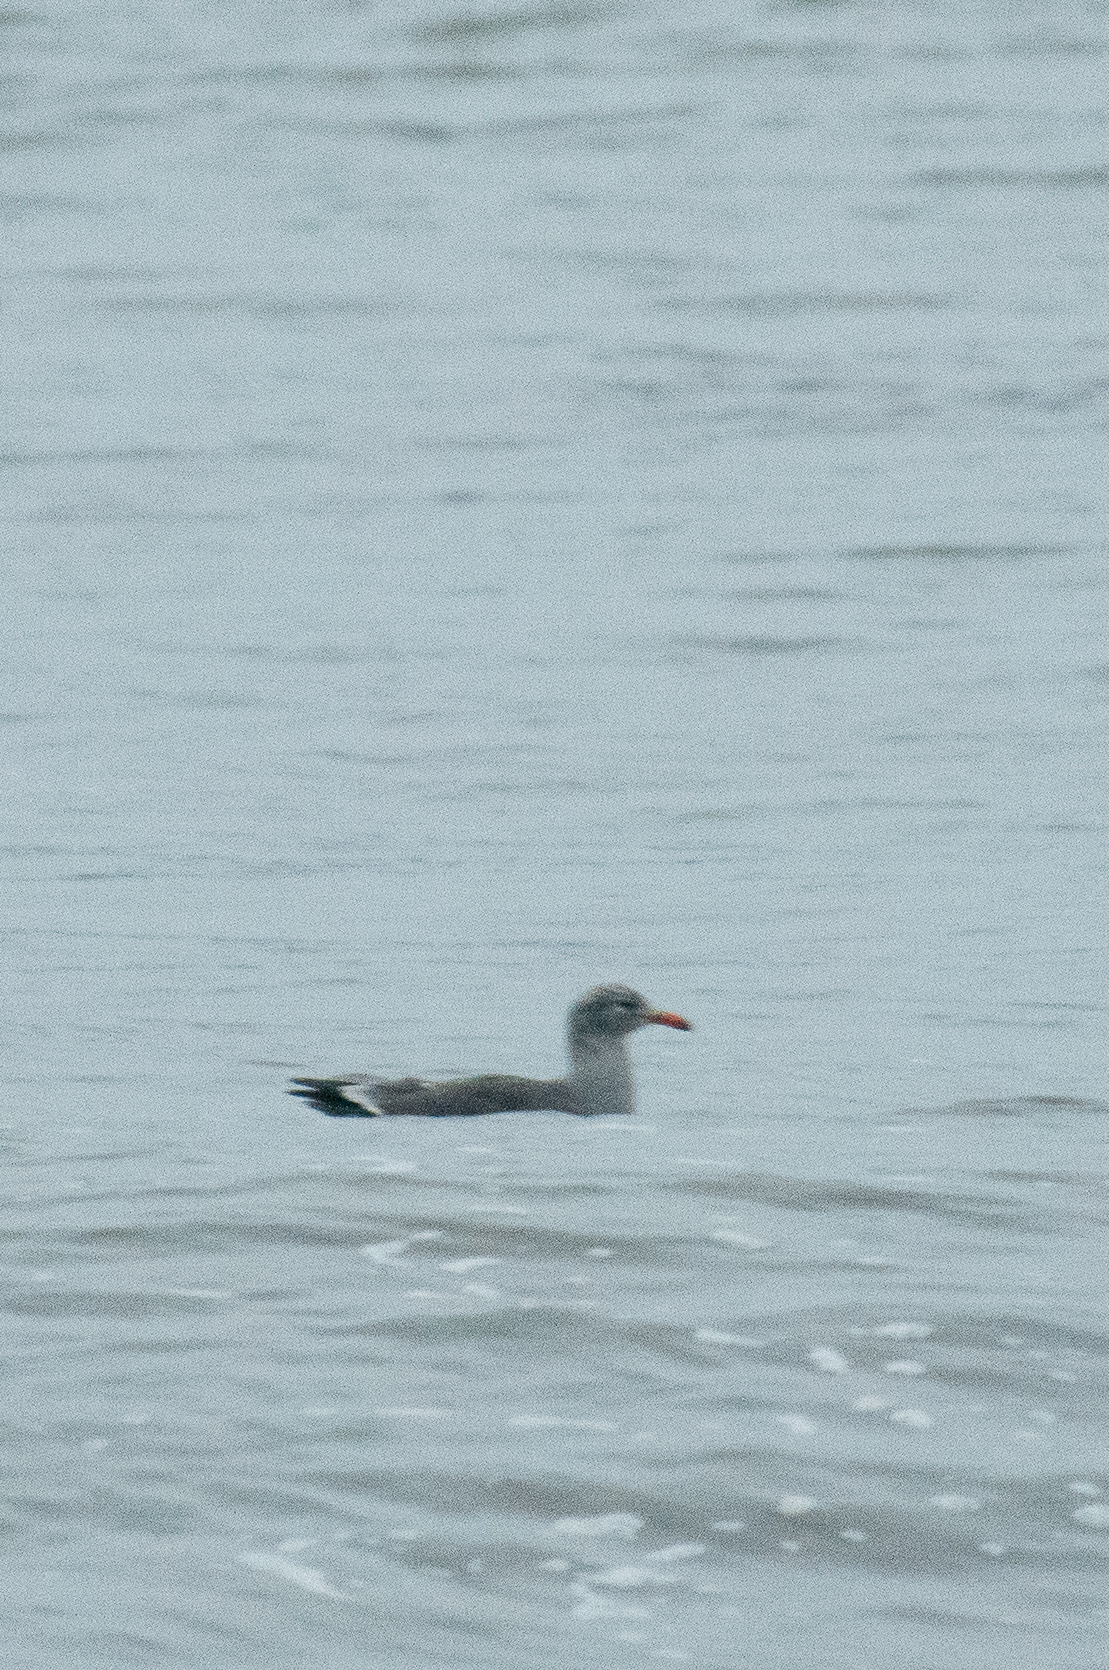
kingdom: Animalia
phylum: Chordata
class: Aves
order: Charadriiformes
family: Laridae
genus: Larus
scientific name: Larus heermanni
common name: Heermann's gull
